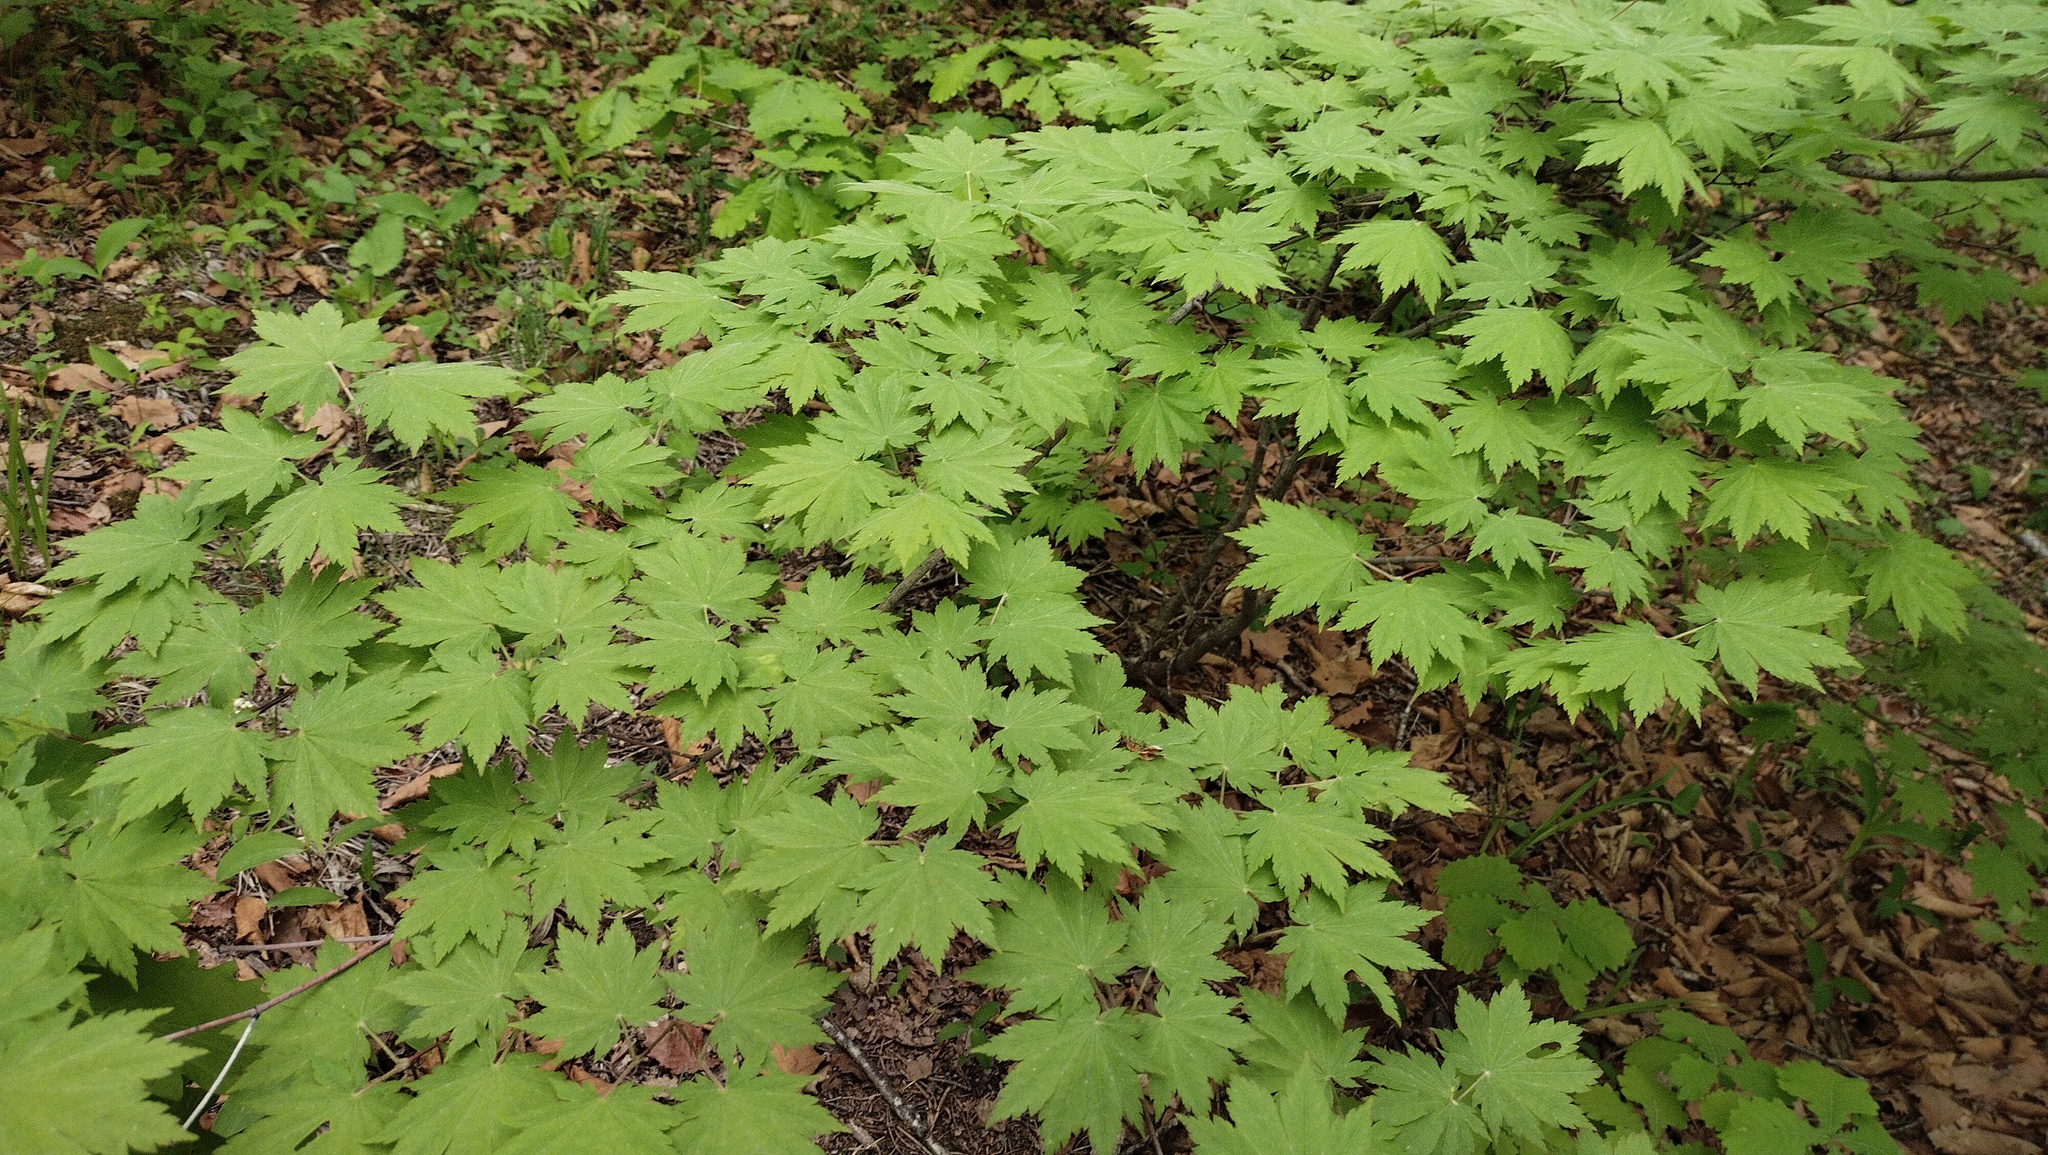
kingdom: Plantae
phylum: Tracheophyta
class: Magnoliopsida
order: Sapindales
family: Sapindaceae
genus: Acer
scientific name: Acer pseudosieboldianum
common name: Korean maple
